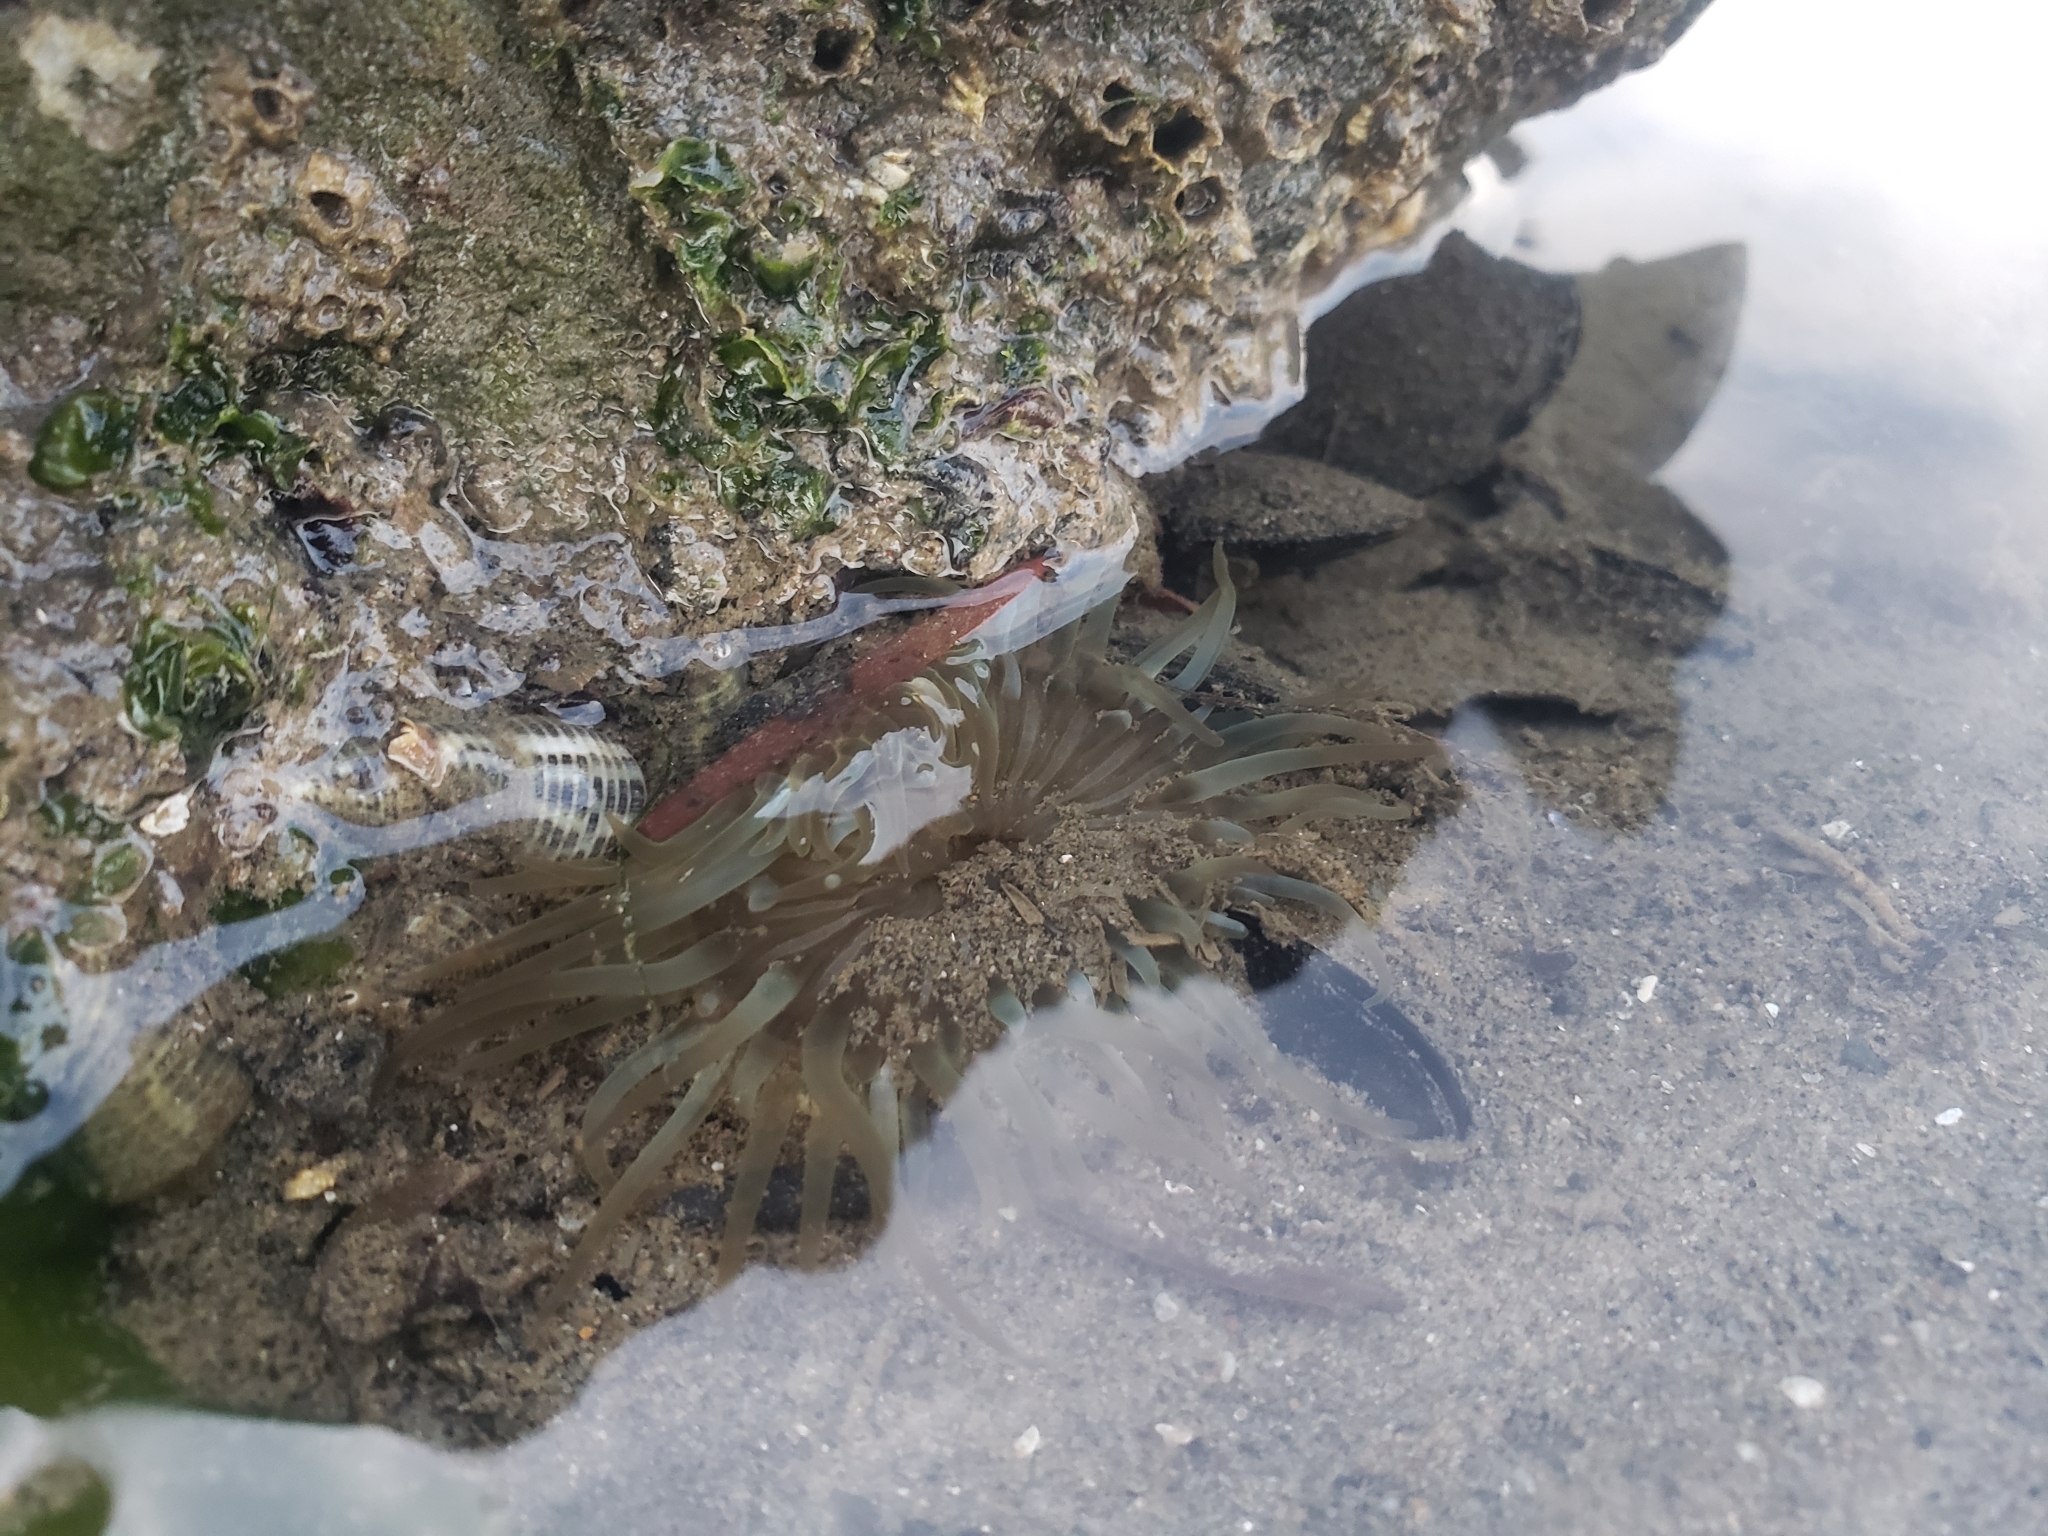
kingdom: Animalia
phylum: Cnidaria
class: Anthozoa
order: Actiniaria
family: Actiniidae
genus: Anthopleura
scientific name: Anthopleura sola
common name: Sun anemone
